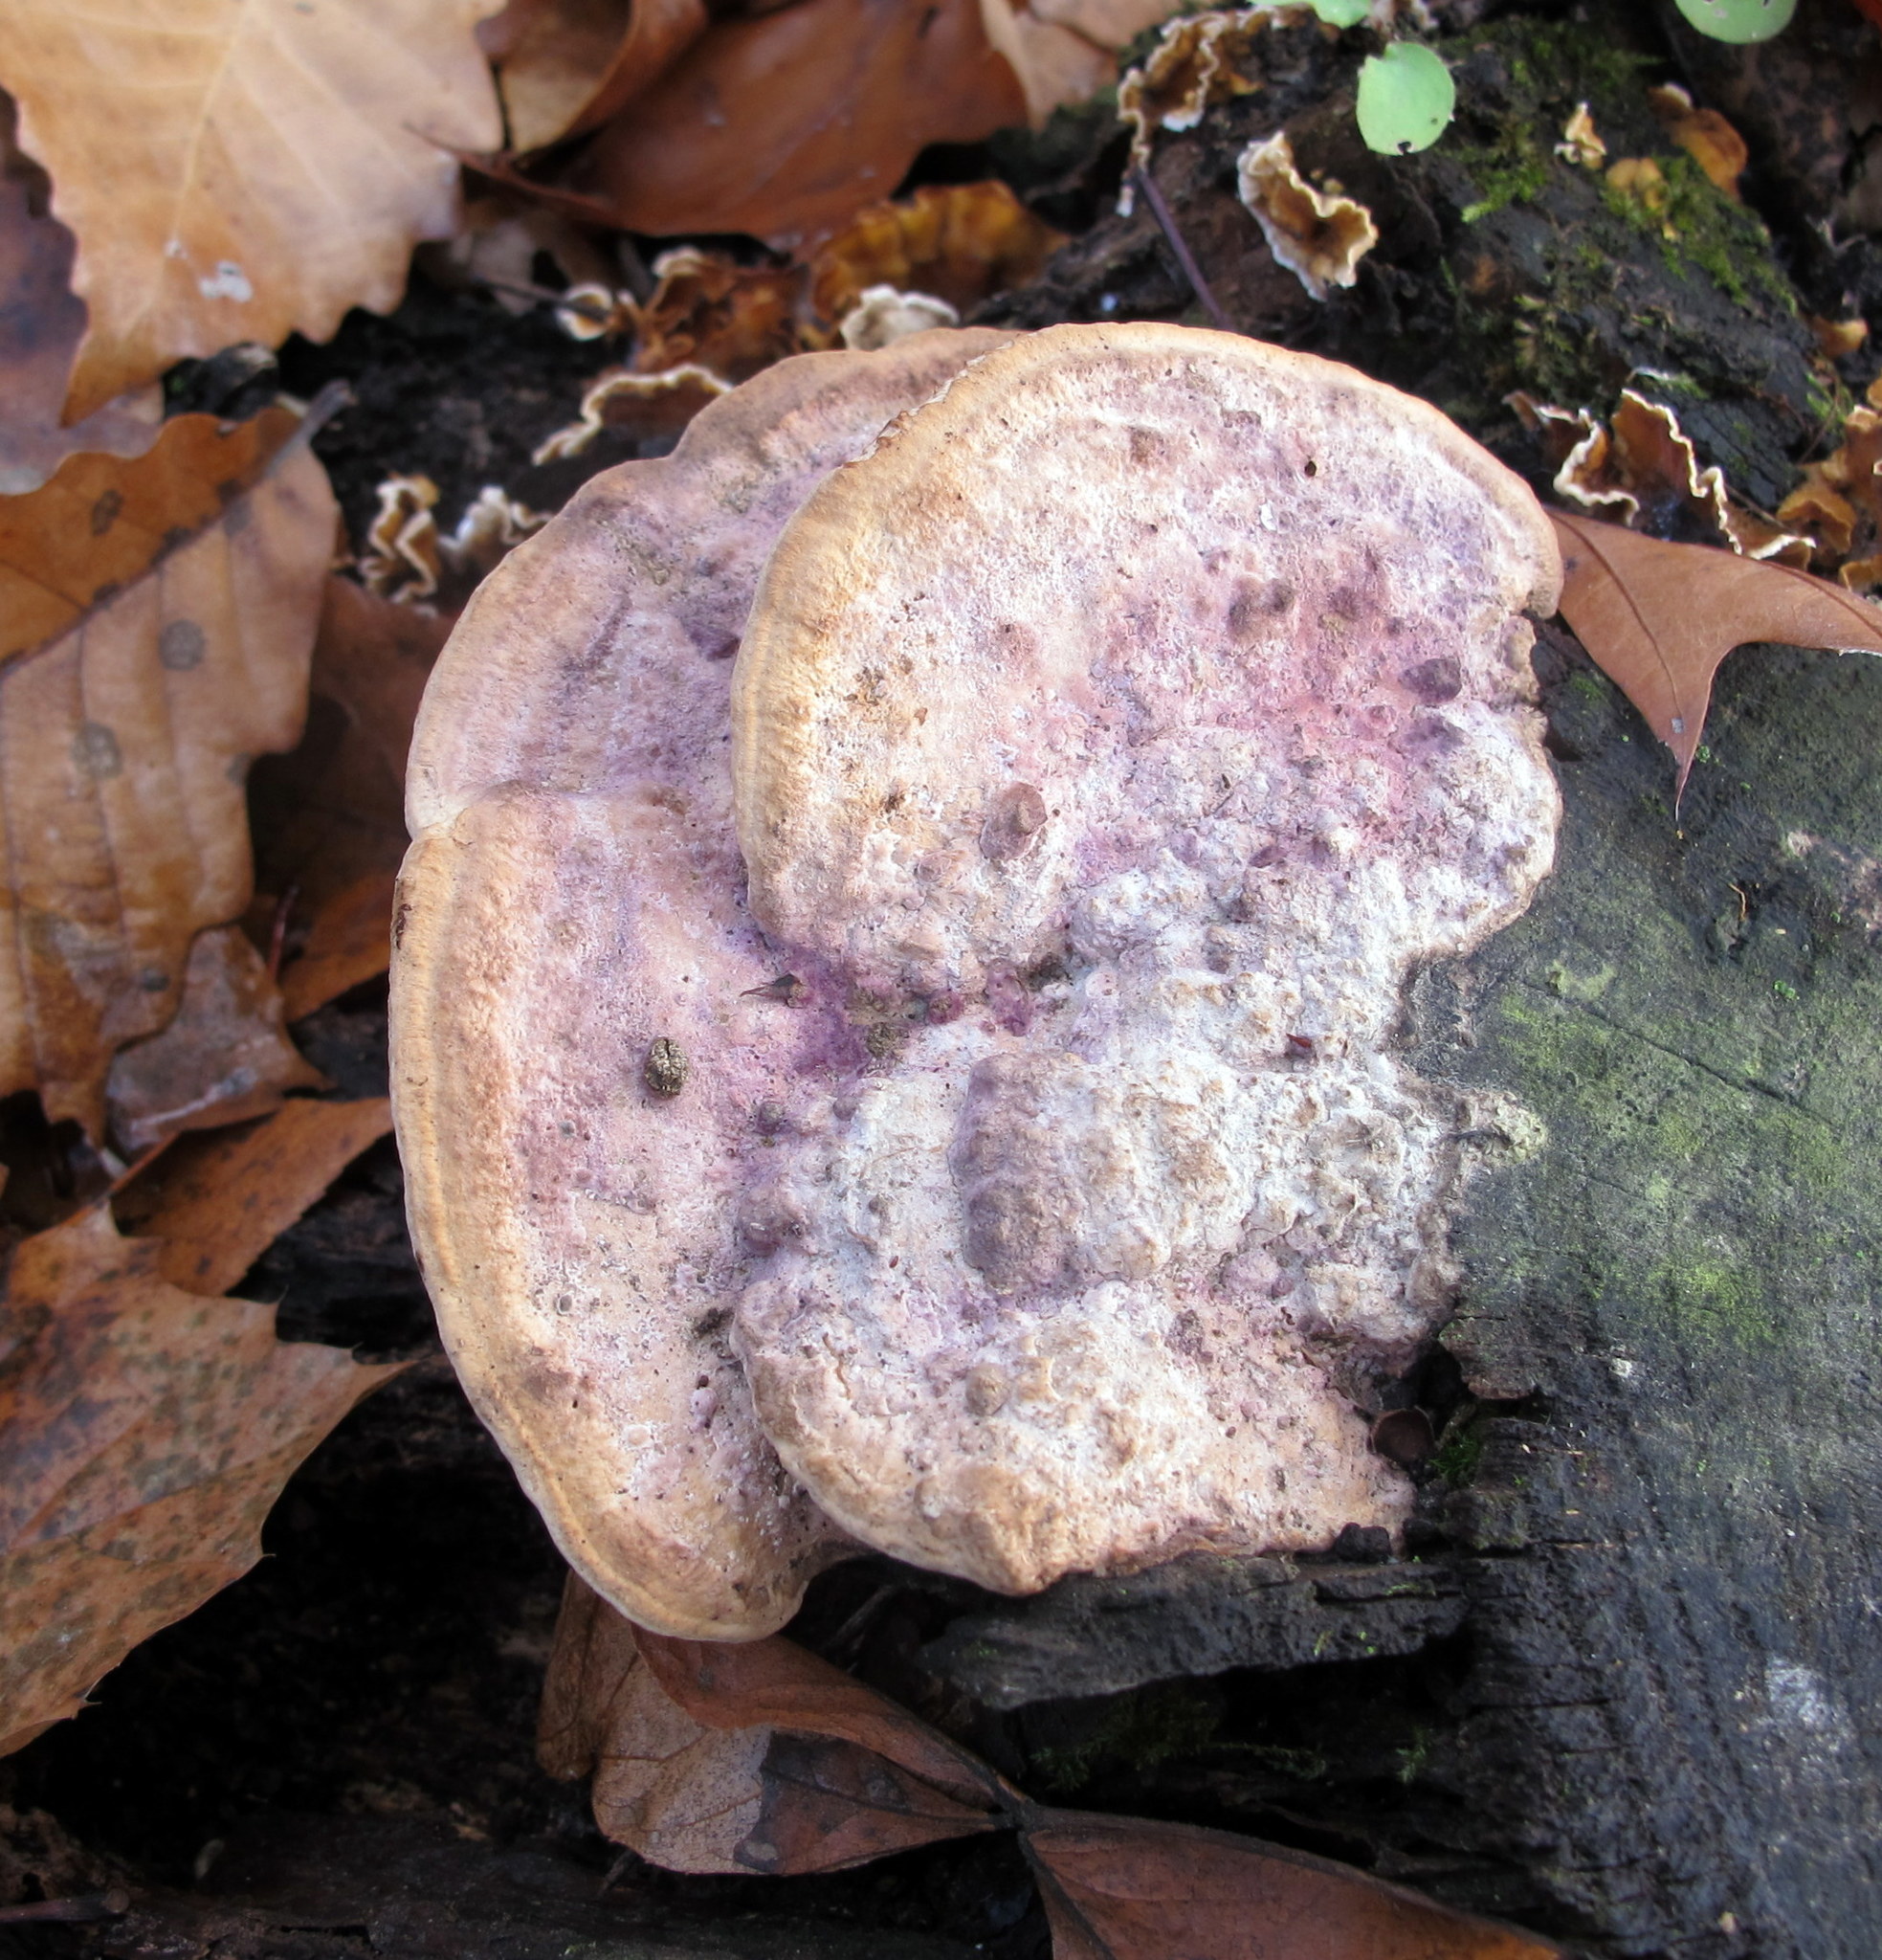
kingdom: Fungi
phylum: Basidiomycota
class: Agaricomycetes
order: Polyporales
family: Fomitopsidaceae
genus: Fomitopsis
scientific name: Fomitopsis
